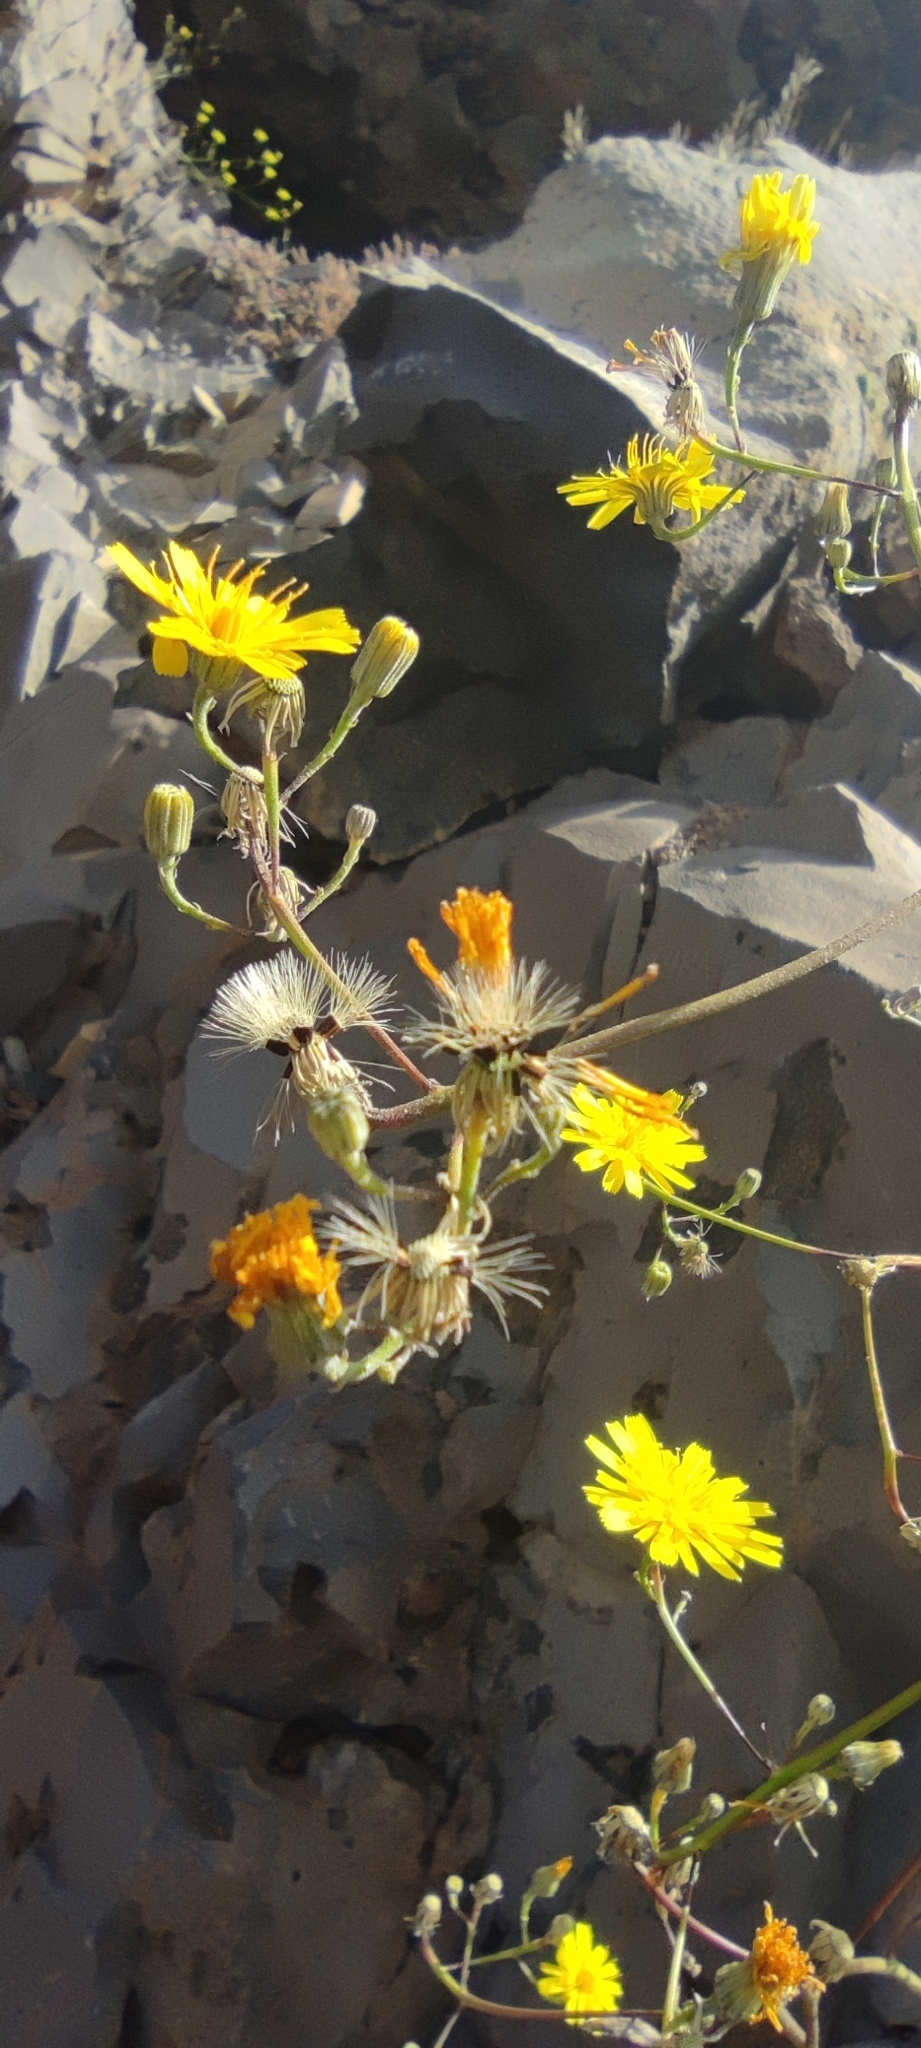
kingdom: Plantae
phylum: Tracheophyta
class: Magnoliopsida
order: Asterales
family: Asteraceae
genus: Tolpis
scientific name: Tolpis calderae
